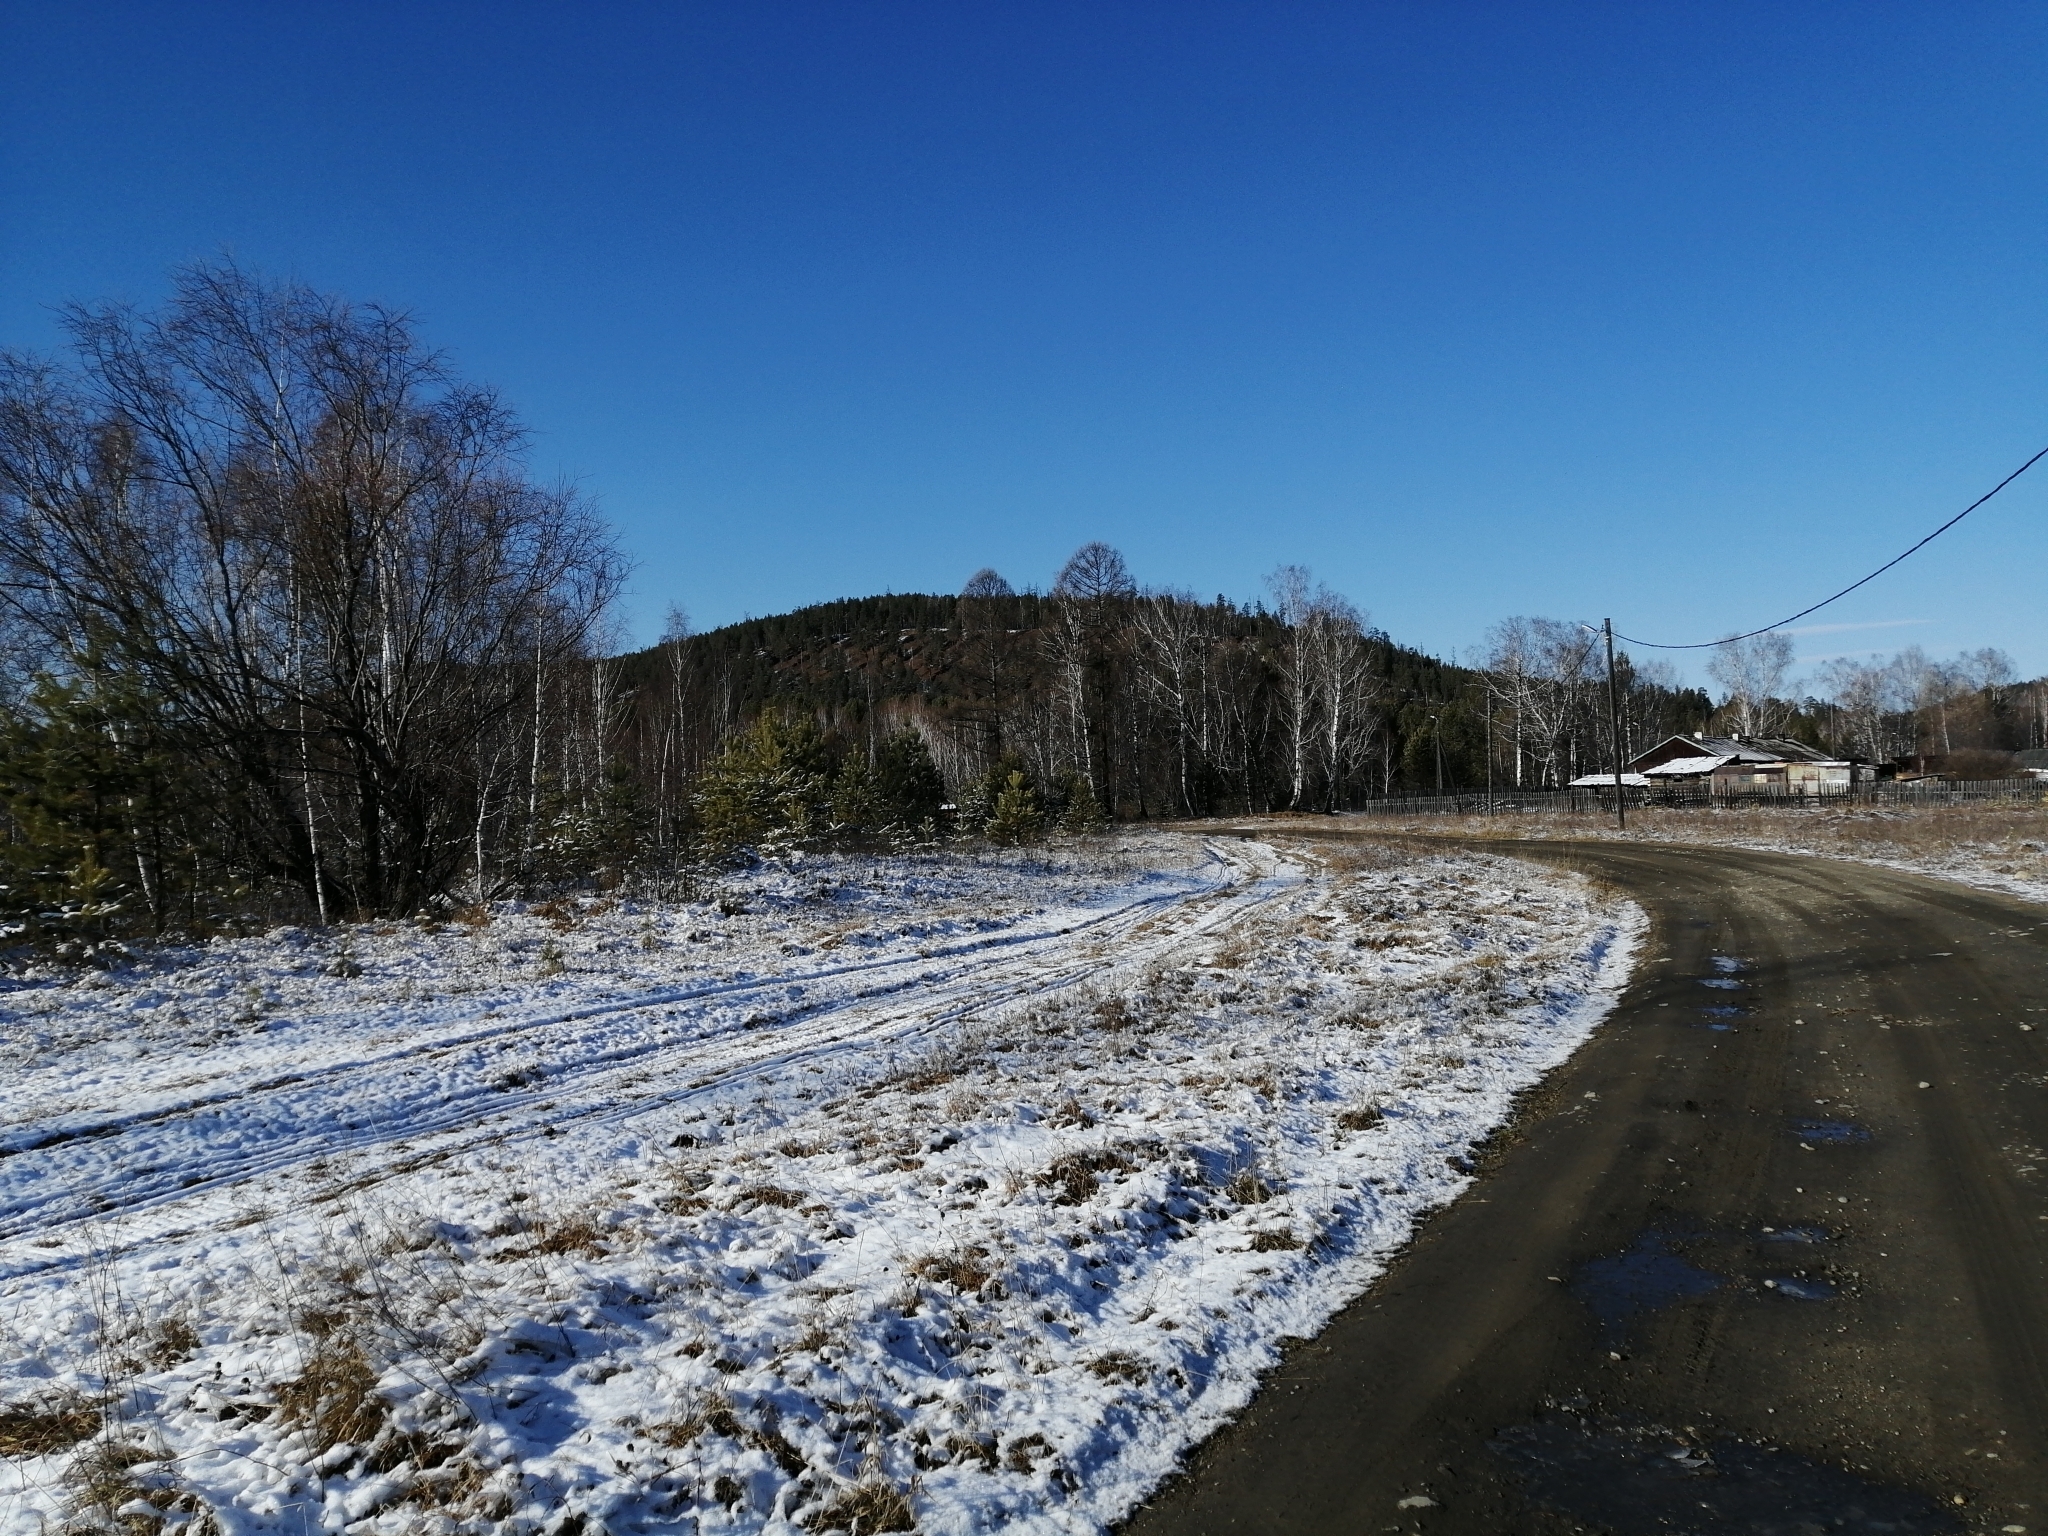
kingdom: Plantae
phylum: Tracheophyta
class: Pinopsida
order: Pinales
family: Pinaceae
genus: Larix
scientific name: Larix sibirica
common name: Siberian larch
